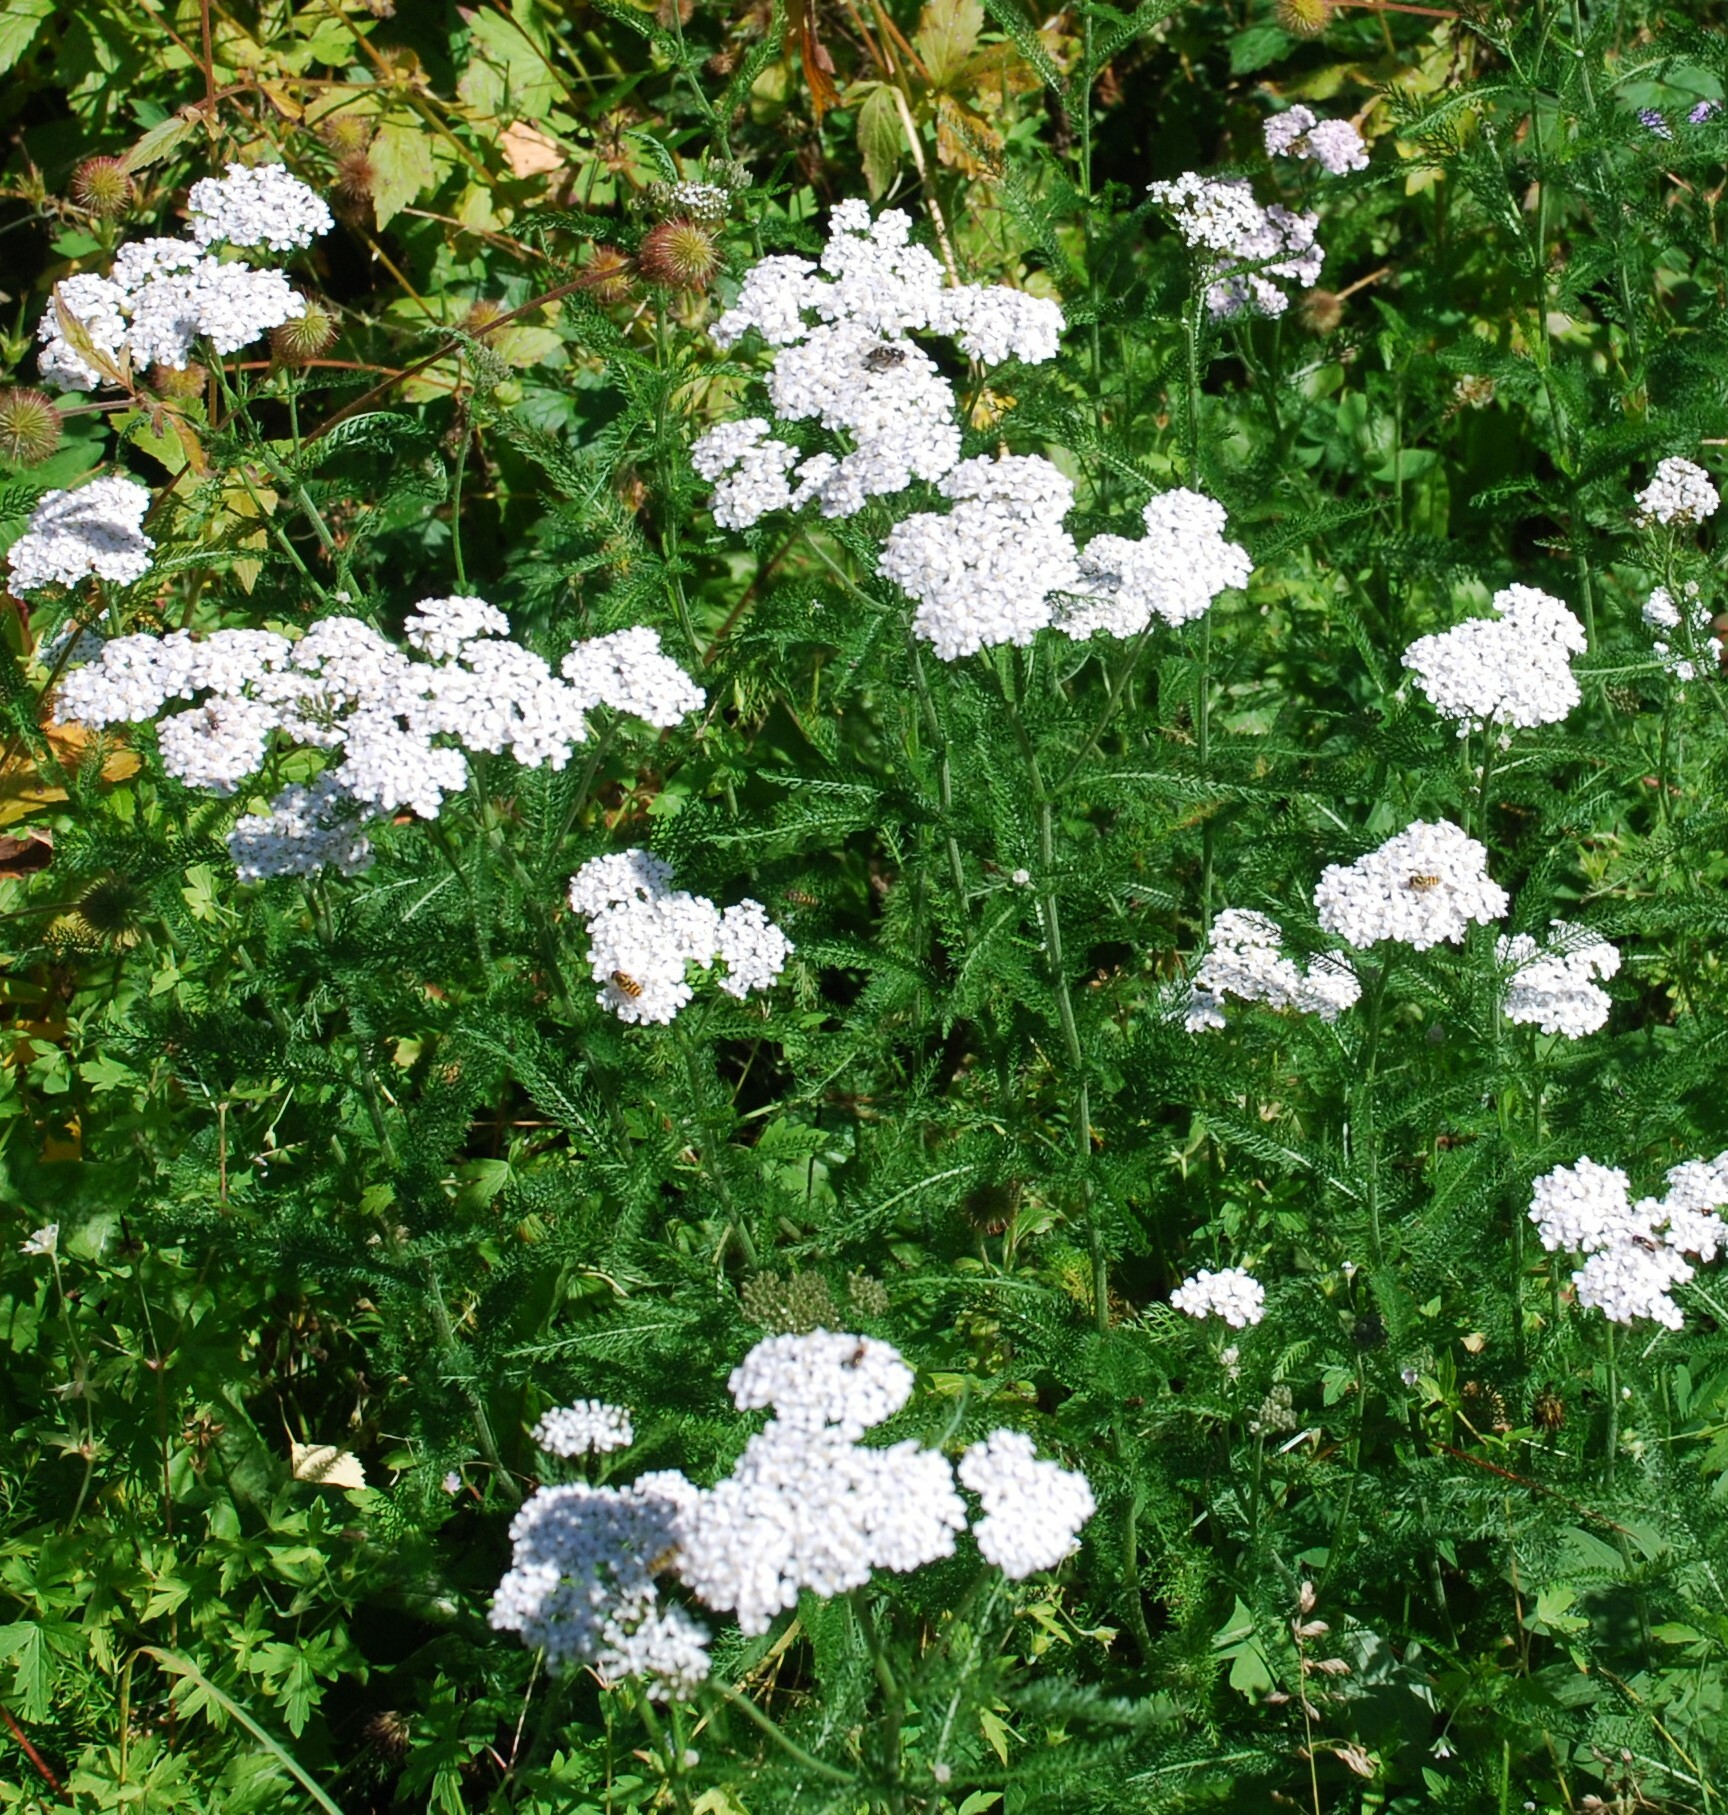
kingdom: Plantae
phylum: Tracheophyta
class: Magnoliopsida
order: Asterales
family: Asteraceae
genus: Achillea
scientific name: Achillea millefolium
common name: Yarrow
